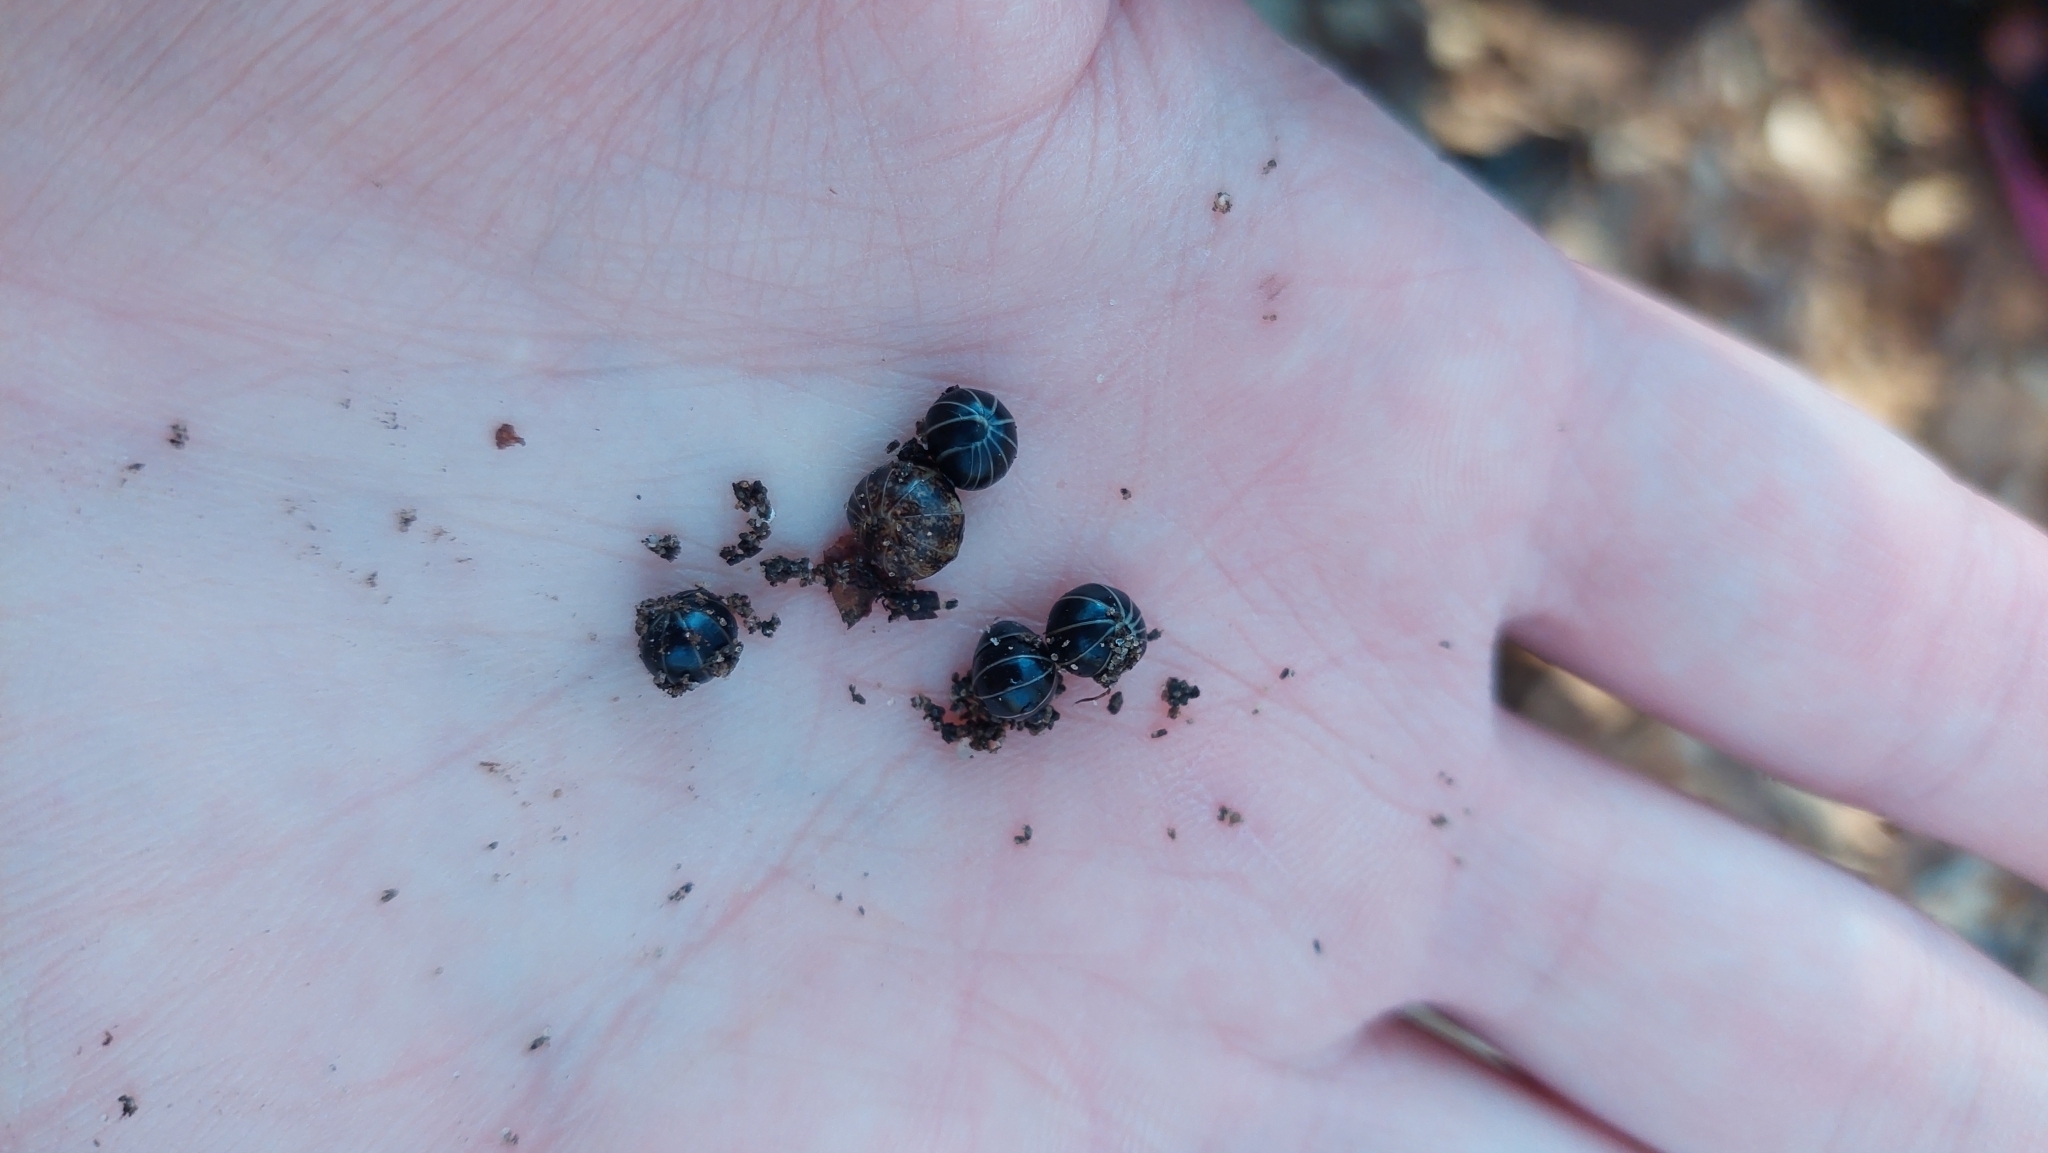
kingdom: Animalia
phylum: Arthropoda
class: Diplopoda
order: Glomerida
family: Glomeridae
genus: Glomeris
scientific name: Glomeris marginata
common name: Bordered pill millipede
